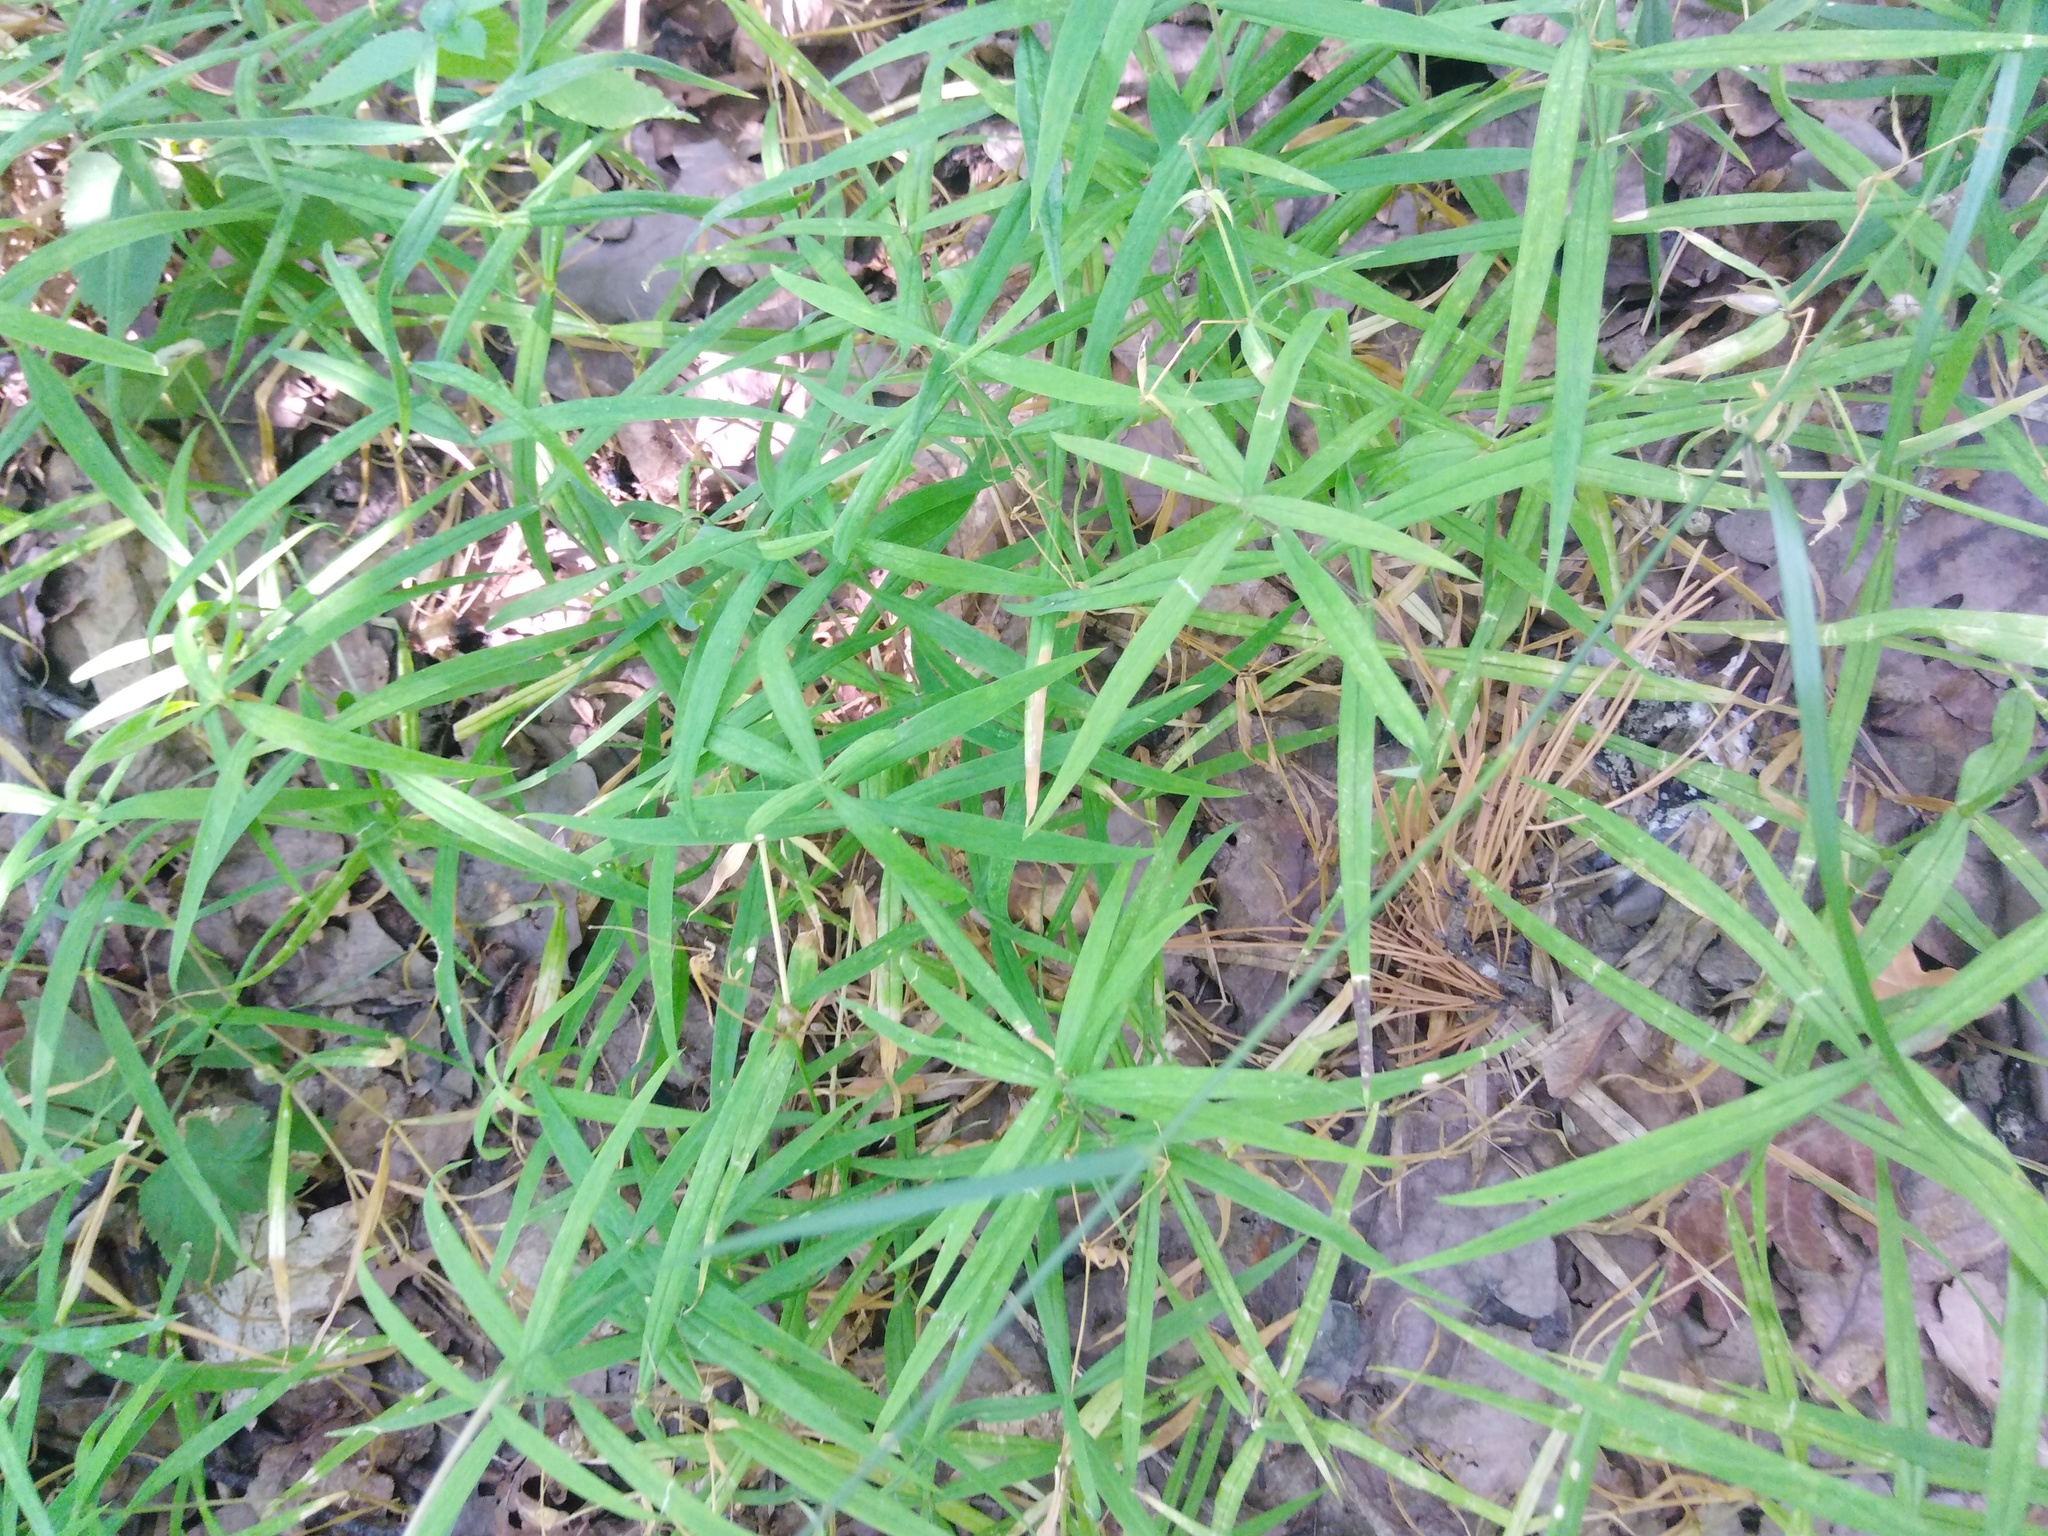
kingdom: Plantae
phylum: Tracheophyta
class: Magnoliopsida
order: Caryophyllales
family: Caryophyllaceae
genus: Rabelera
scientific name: Rabelera holostea
